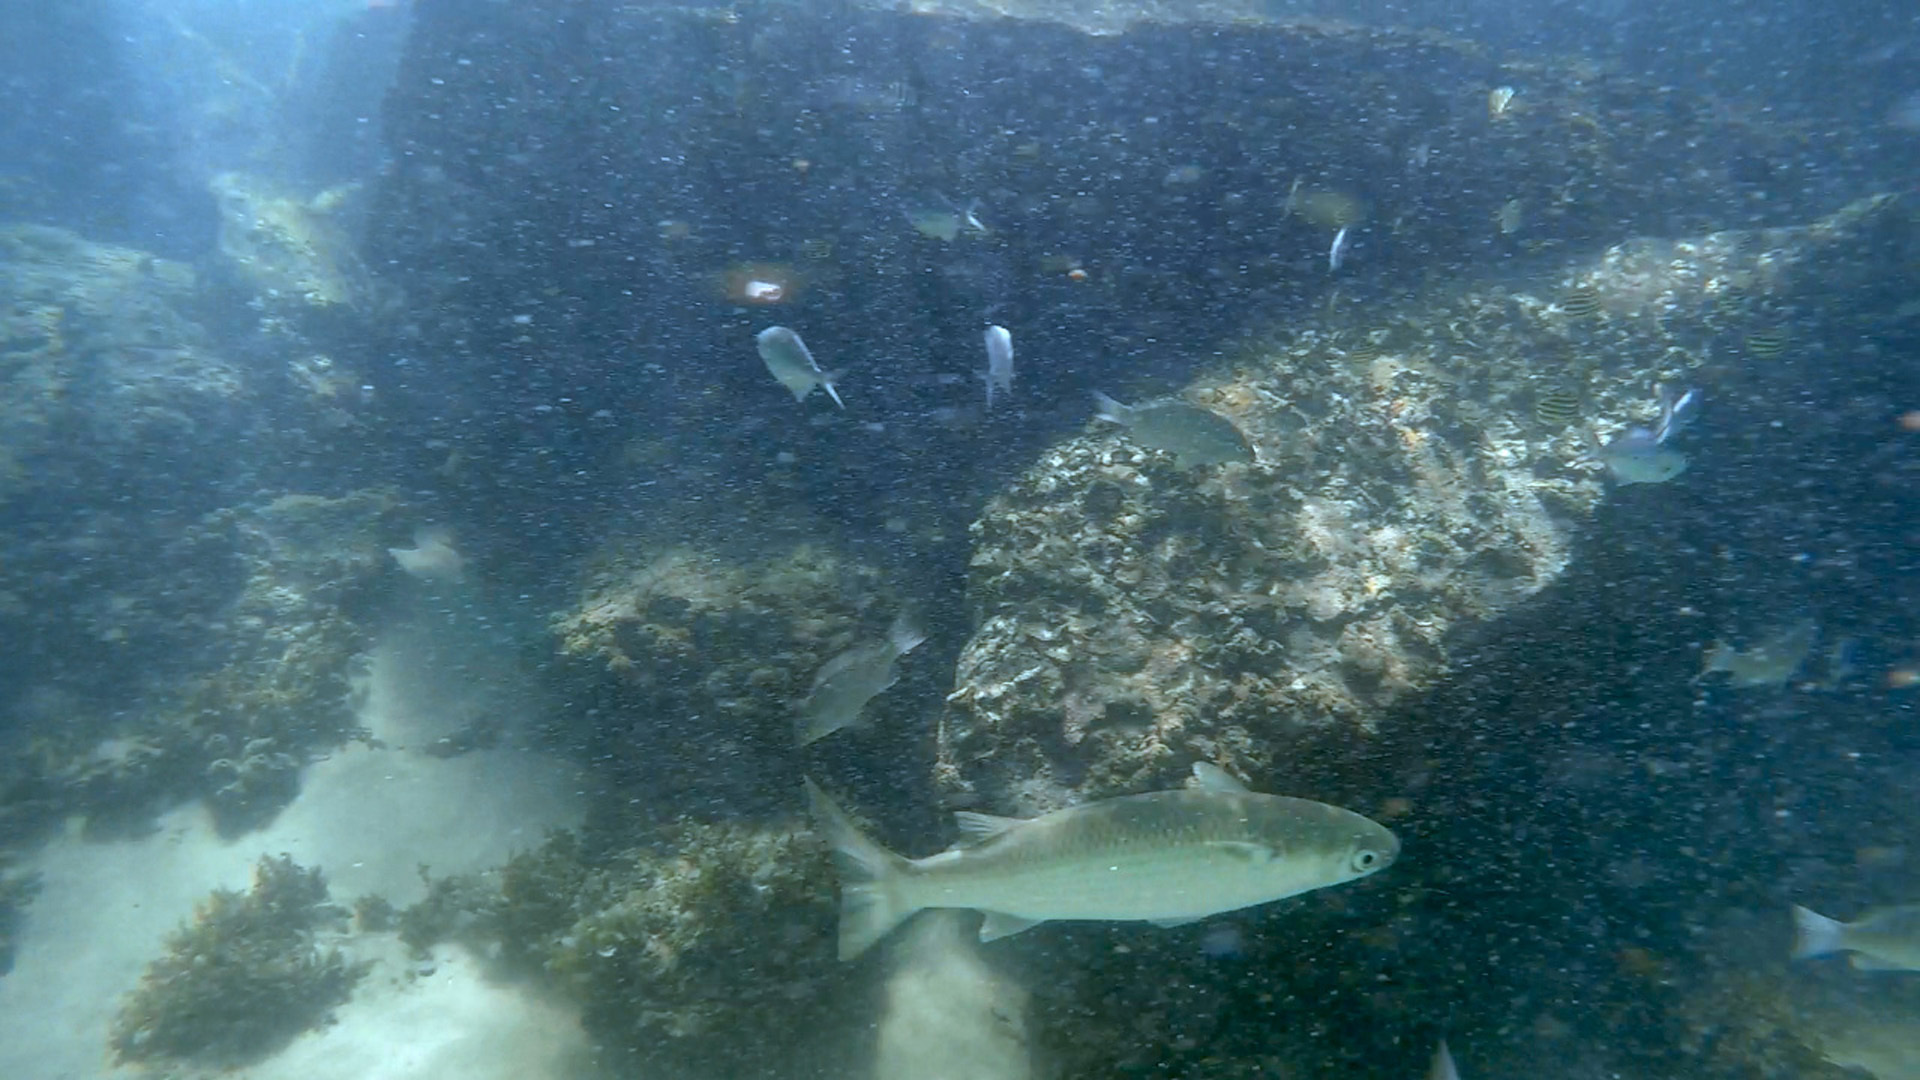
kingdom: Animalia
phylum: Chordata
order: Mugiliformes
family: Mugilidae
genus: Mugil
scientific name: Mugil cephalus
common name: Grey mullet
